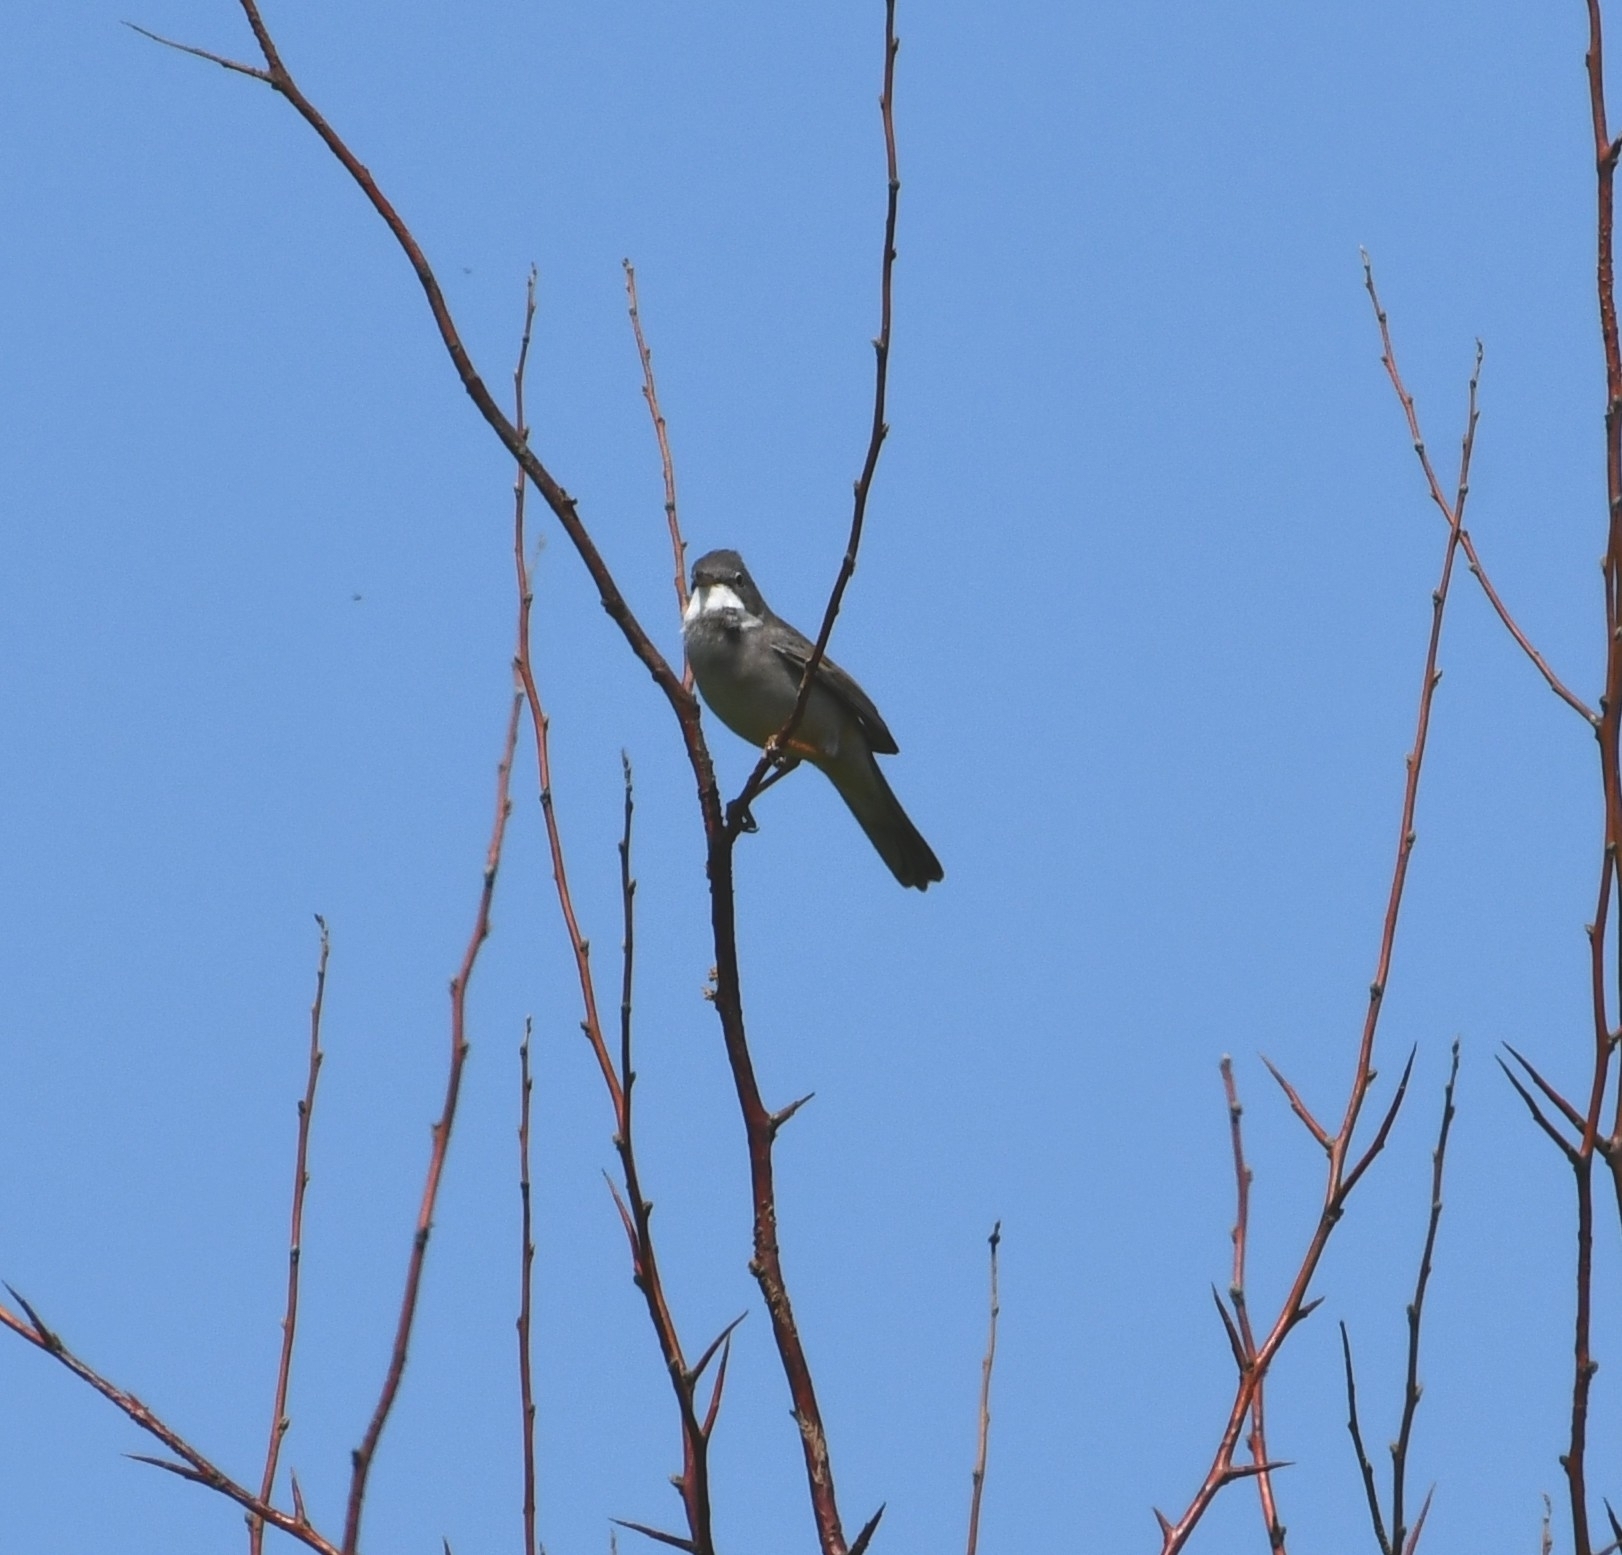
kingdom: Animalia
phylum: Chordata
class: Aves
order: Passeriformes
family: Sylviidae
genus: Sylvia
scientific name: Sylvia communis
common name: Common whitethroat
